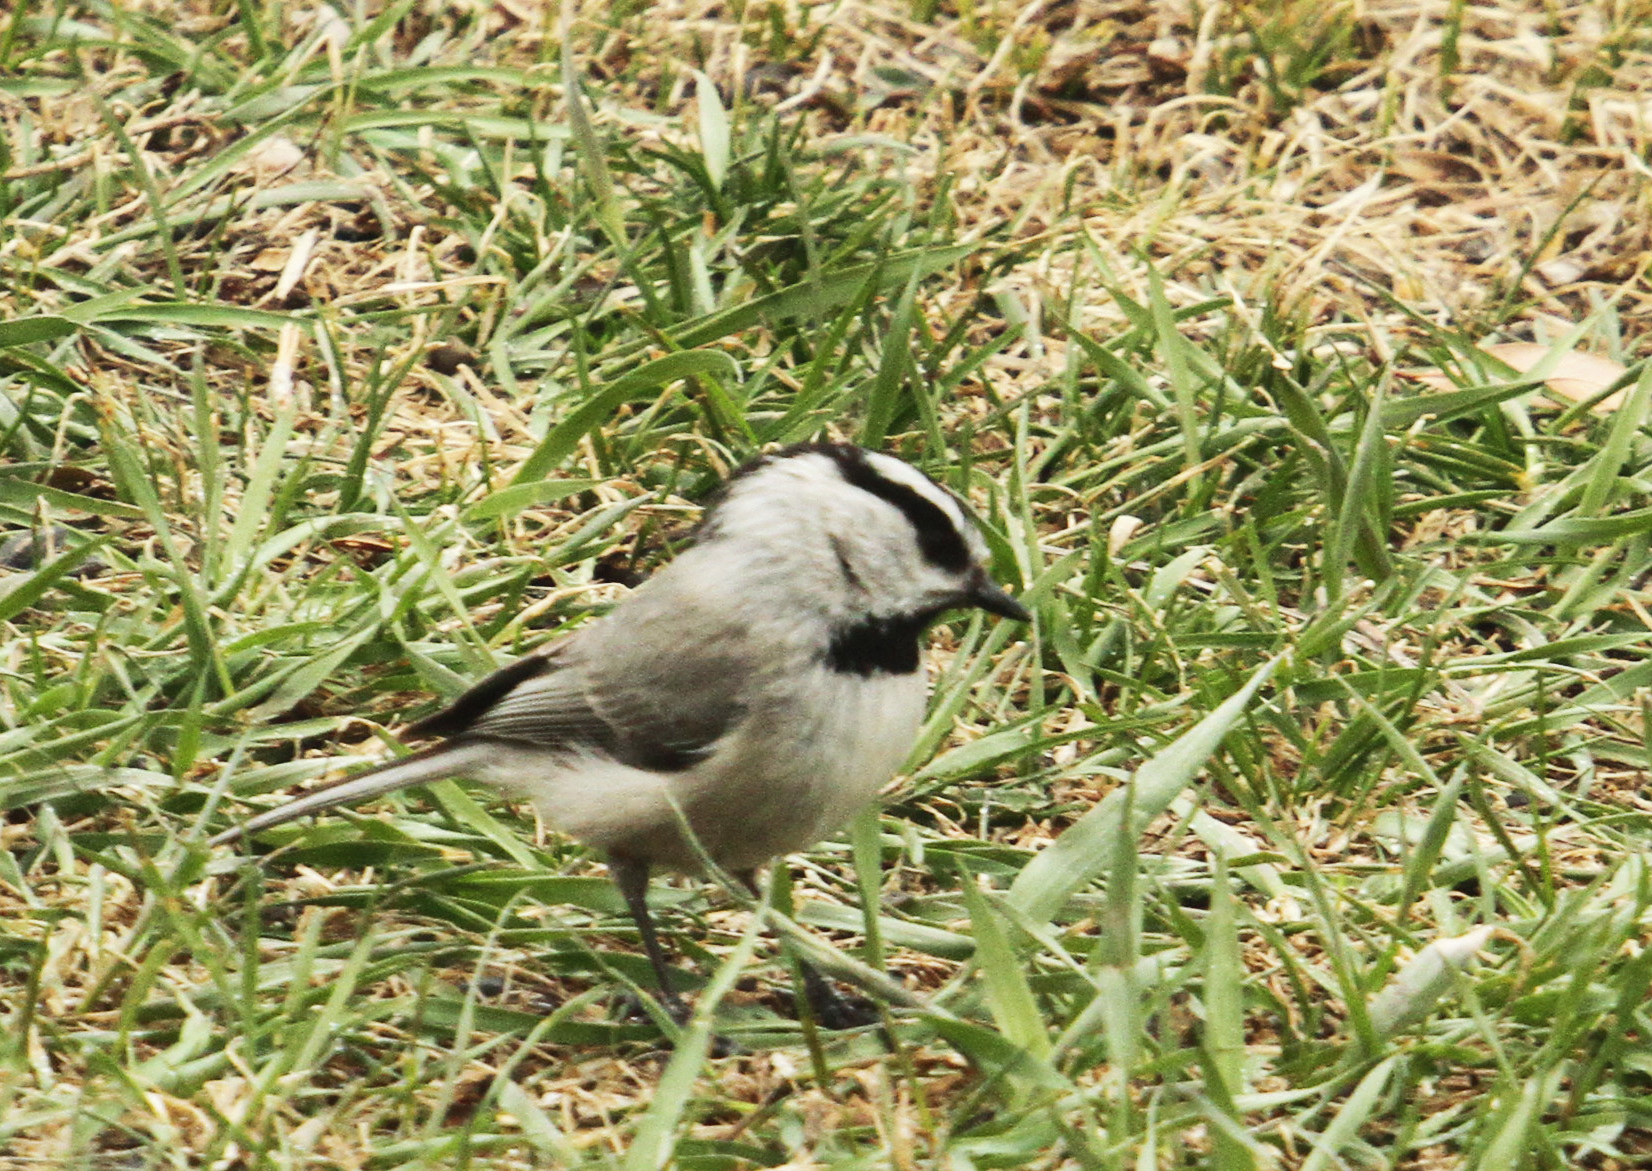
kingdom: Animalia
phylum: Chordata
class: Aves
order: Passeriformes
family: Paridae
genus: Poecile
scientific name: Poecile gambeli
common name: Mountain chickadee
